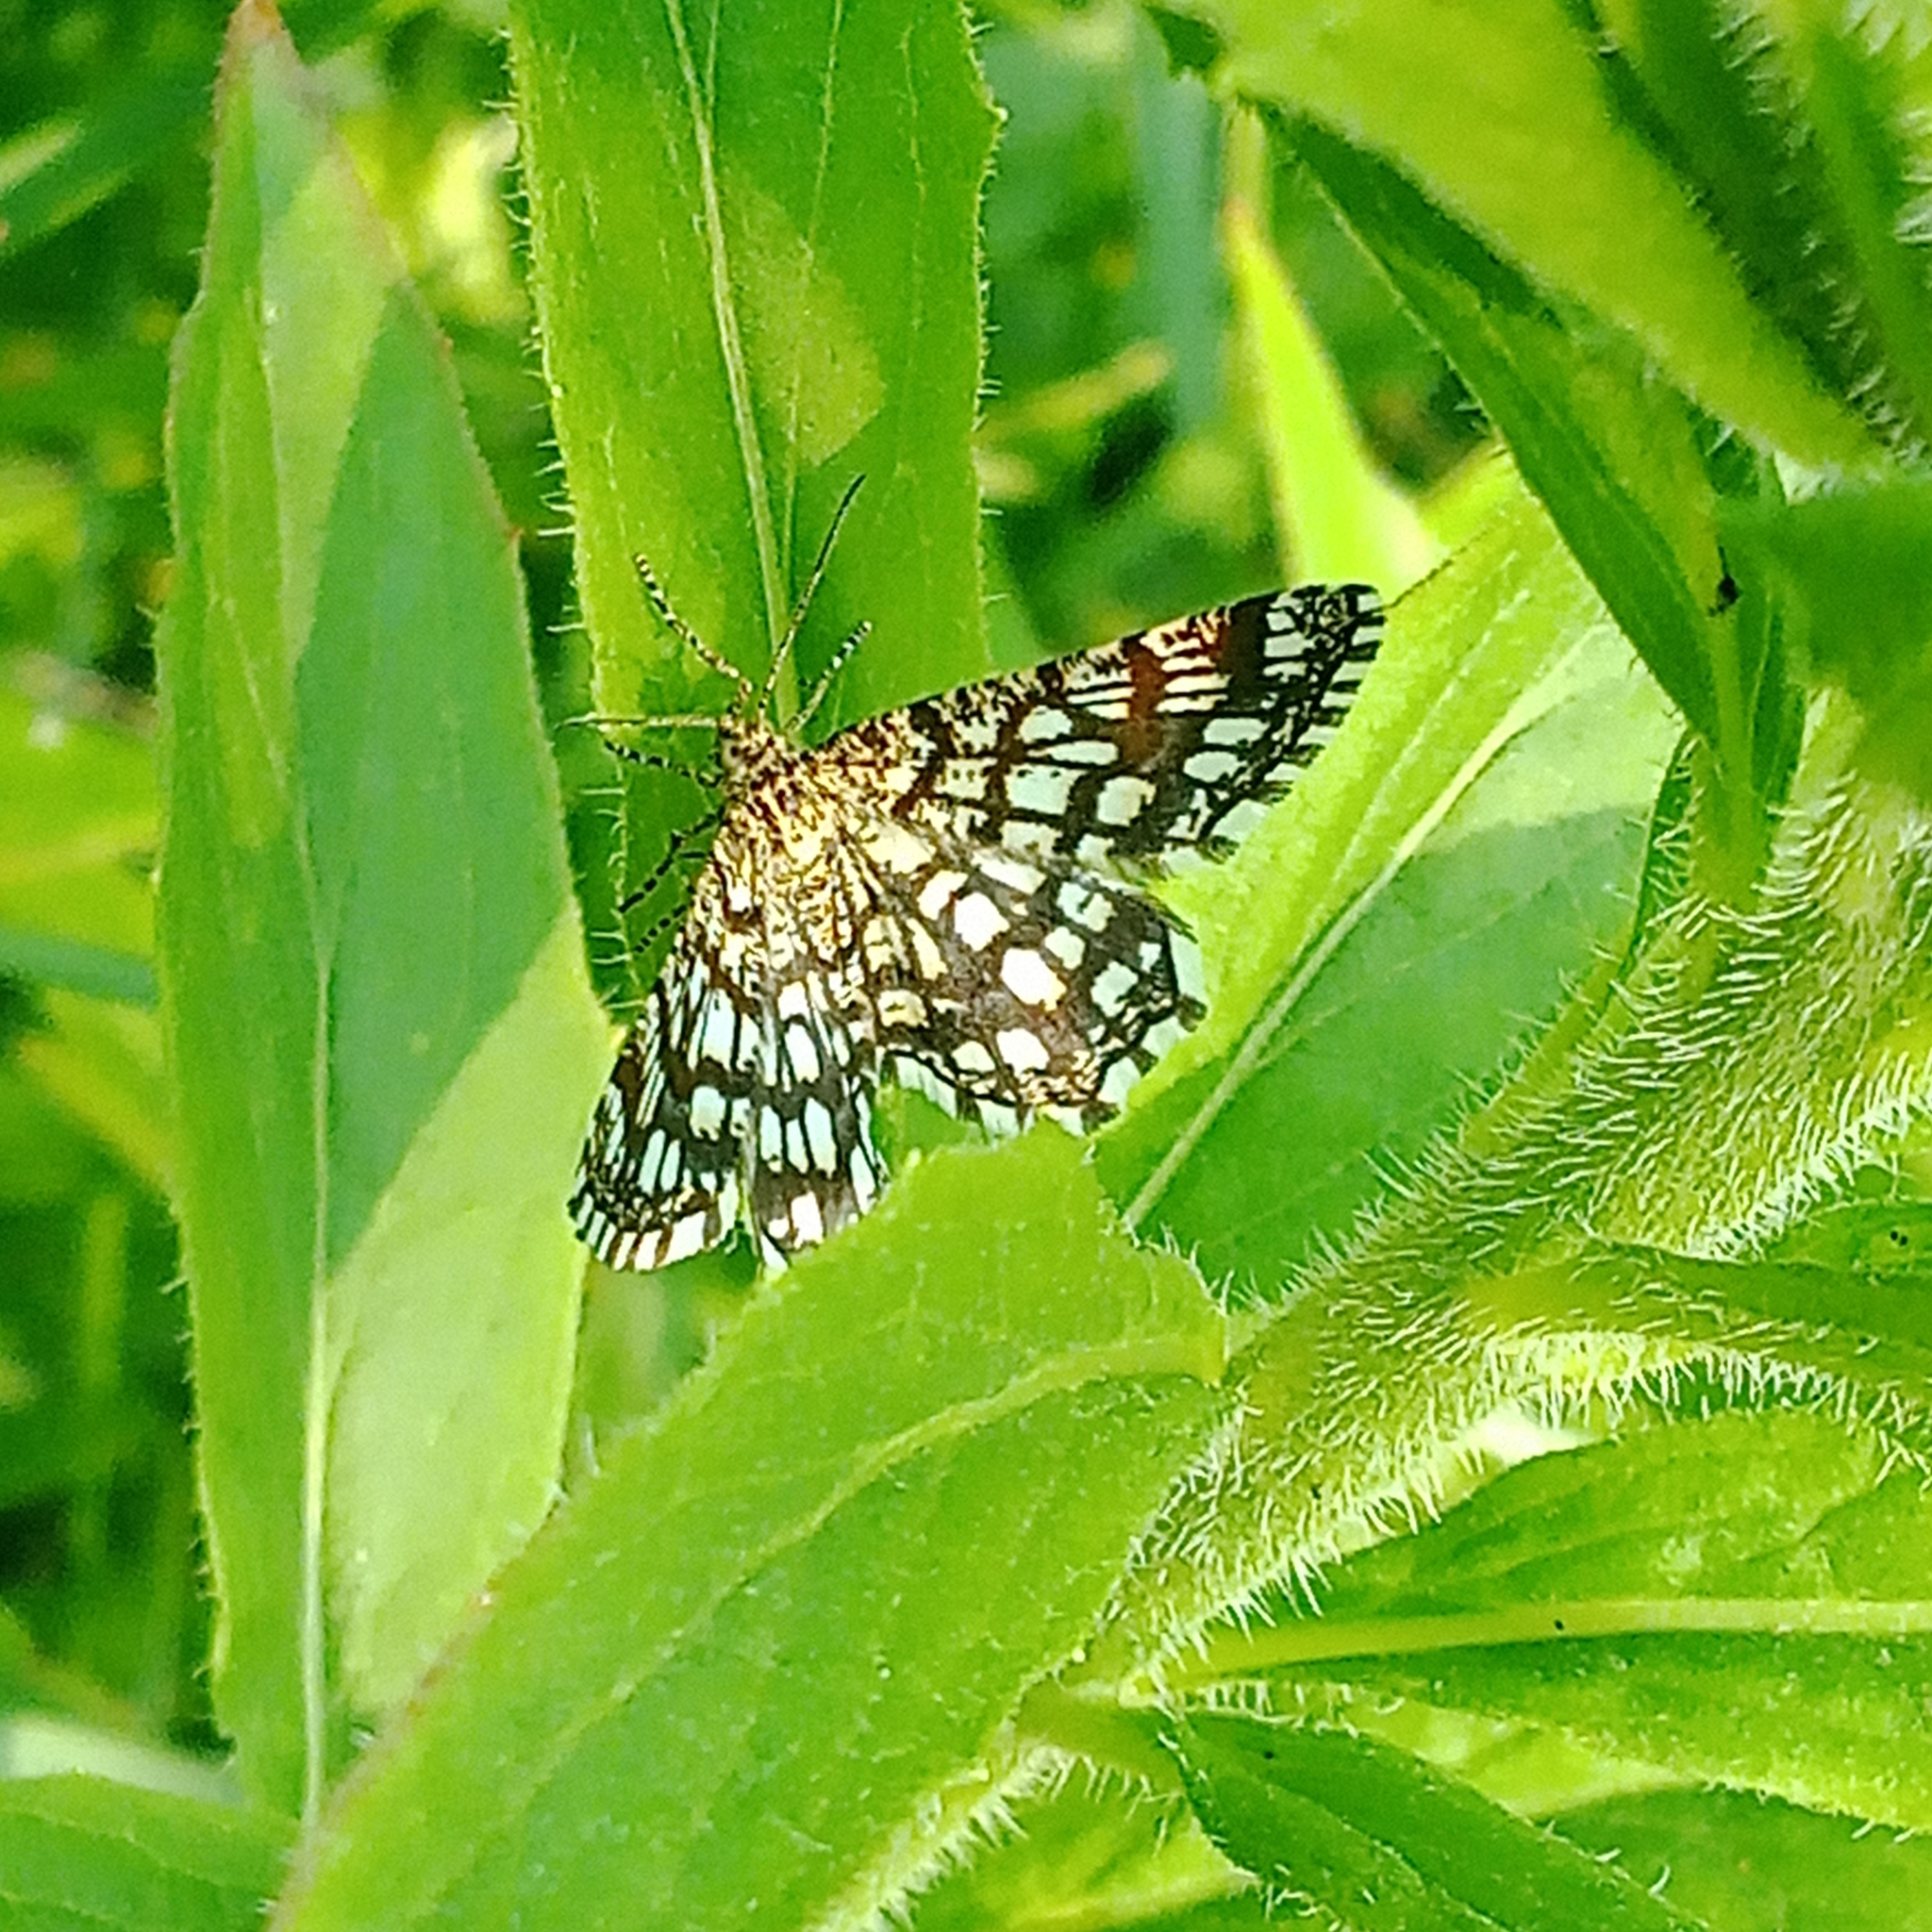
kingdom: Animalia
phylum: Arthropoda
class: Insecta
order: Lepidoptera
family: Geometridae
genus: Chiasmia
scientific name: Chiasmia clathrata
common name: Latticed heath
